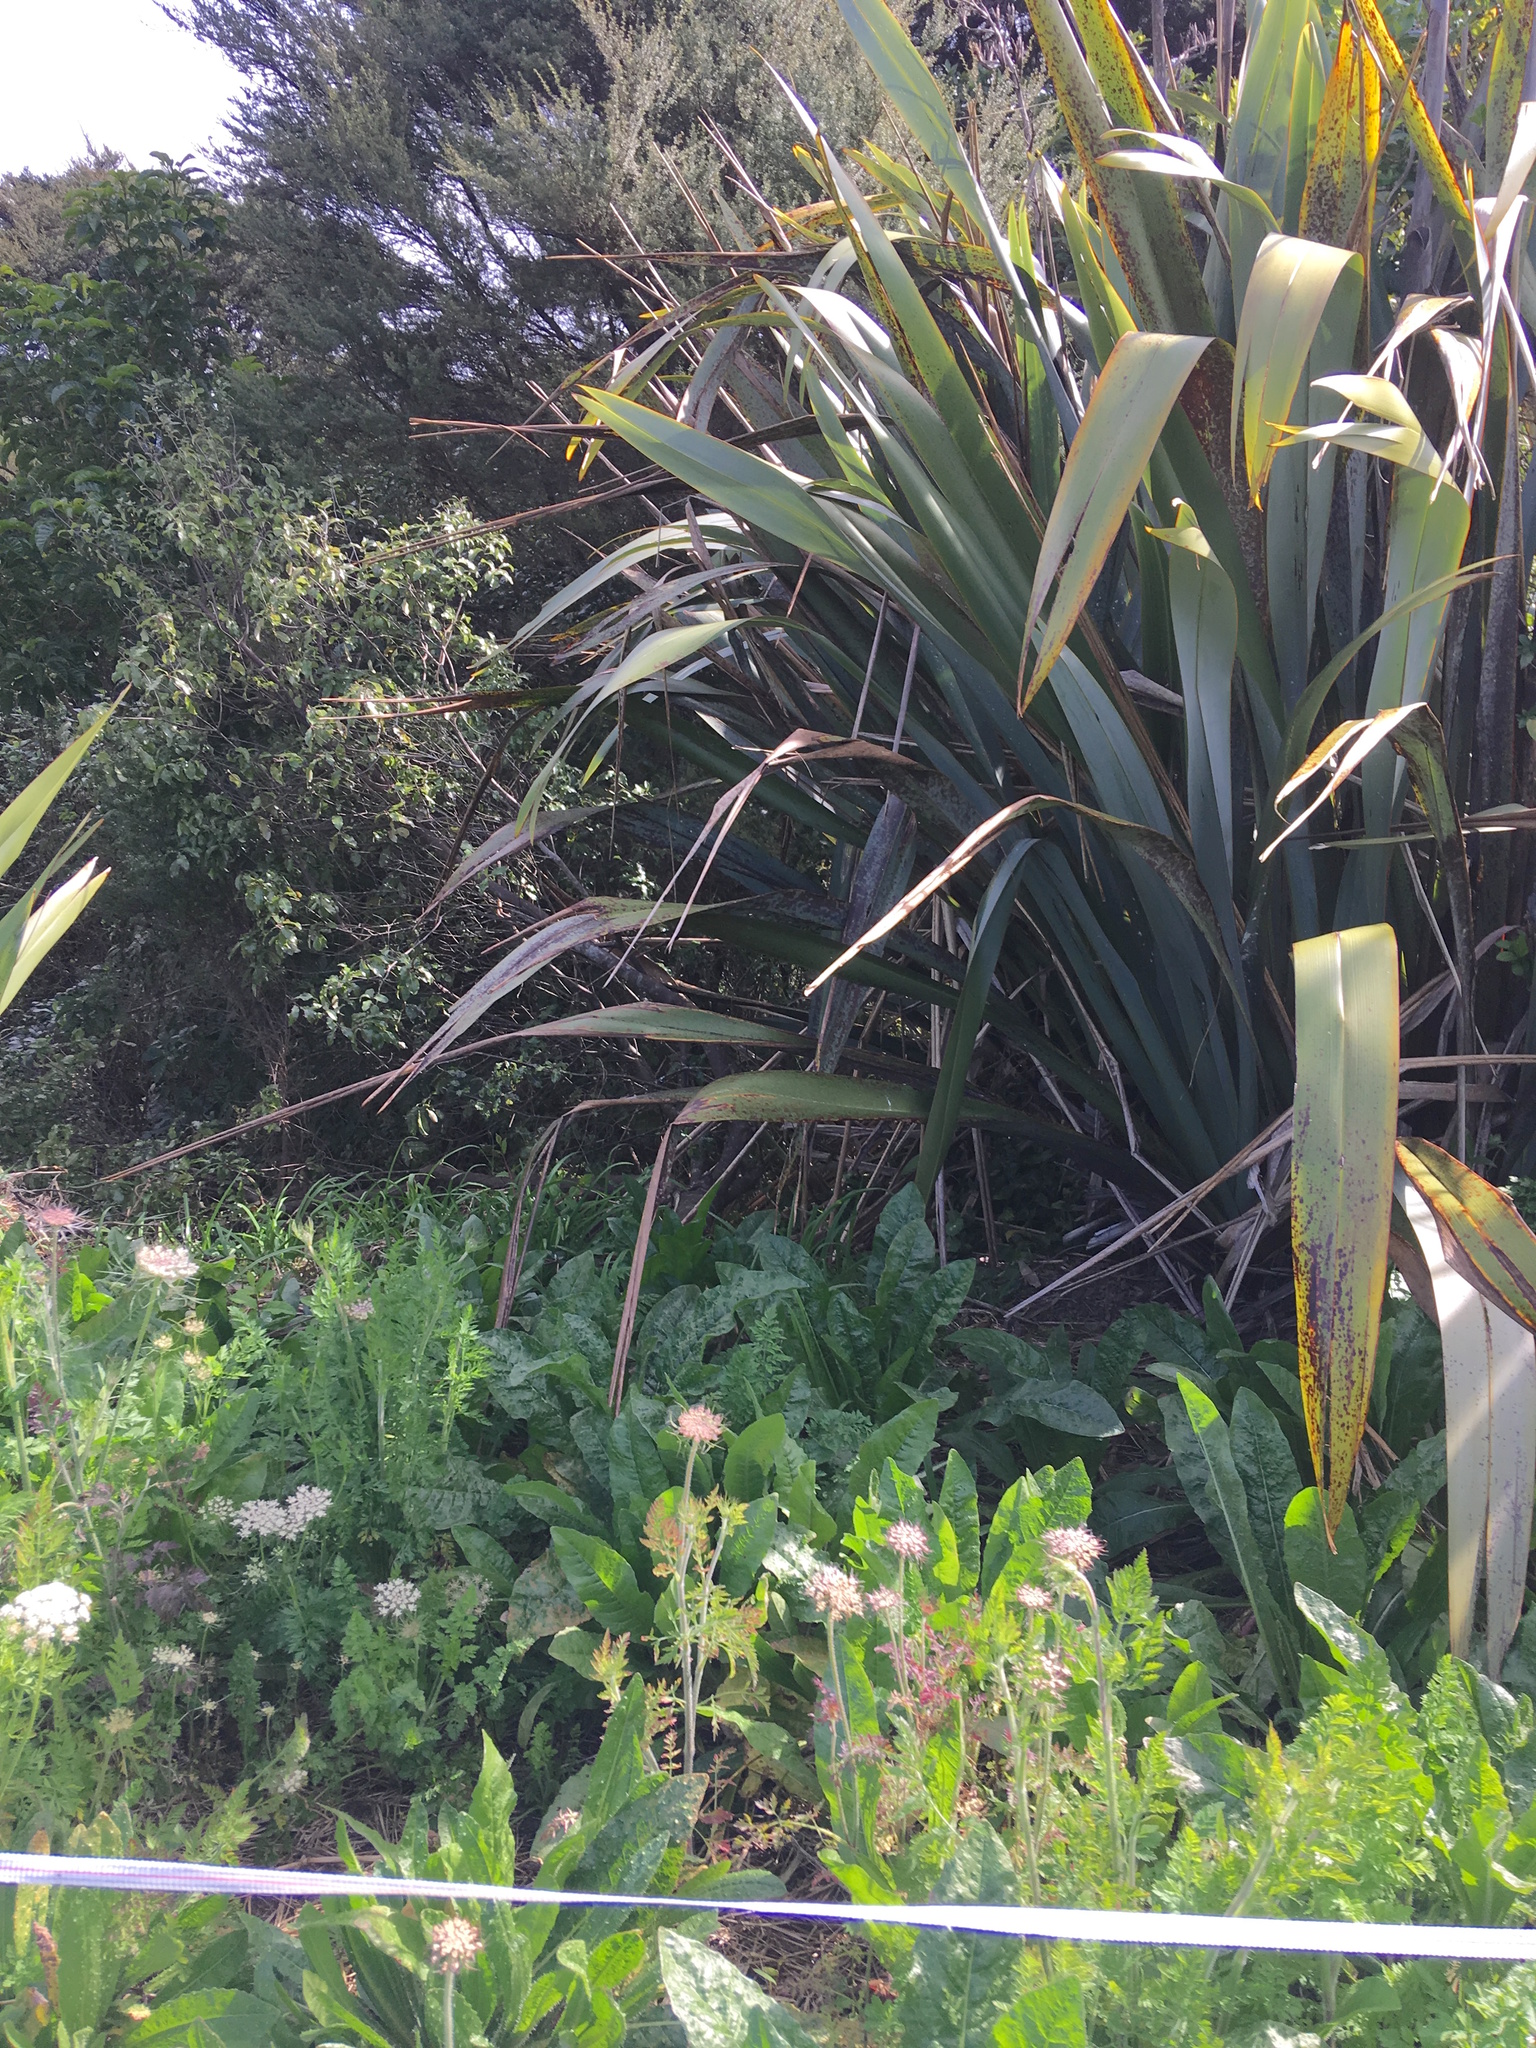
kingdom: Plantae
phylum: Tracheophyta
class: Magnoliopsida
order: Apiales
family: Apiaceae
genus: Daucus
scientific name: Daucus carota
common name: Wild carrot
